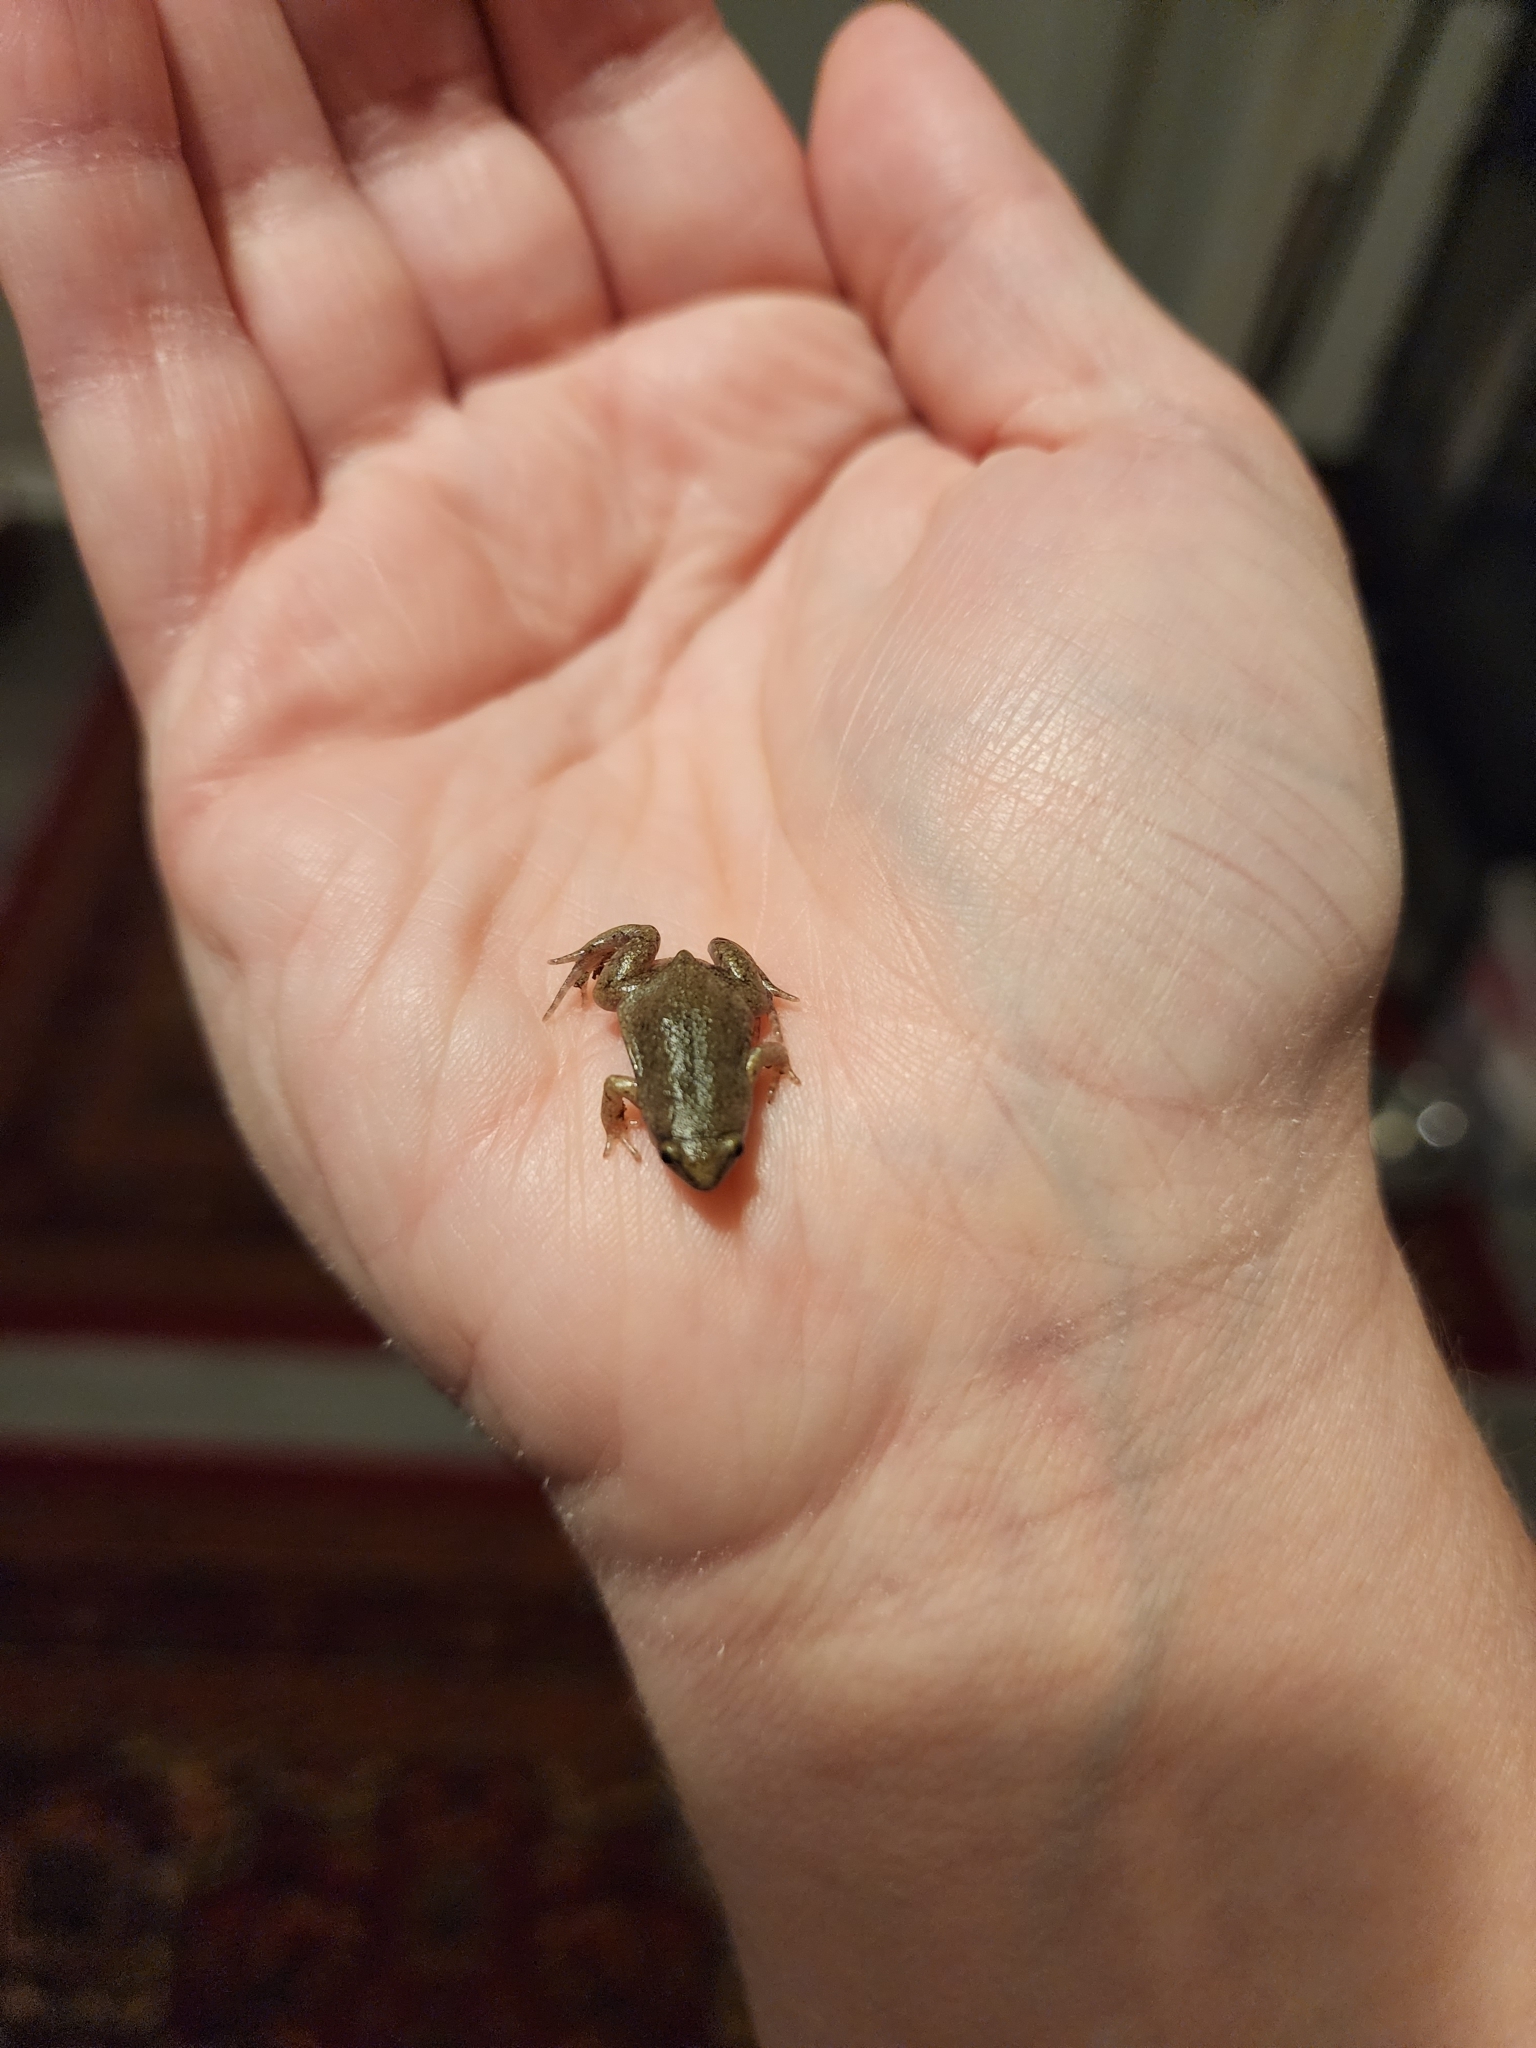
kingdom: Animalia
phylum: Chordata
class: Amphibia
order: Anura
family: Microhylidae
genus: Gastrophryne
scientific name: Gastrophryne olivacea
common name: Great plains narrow-mouthed toad
